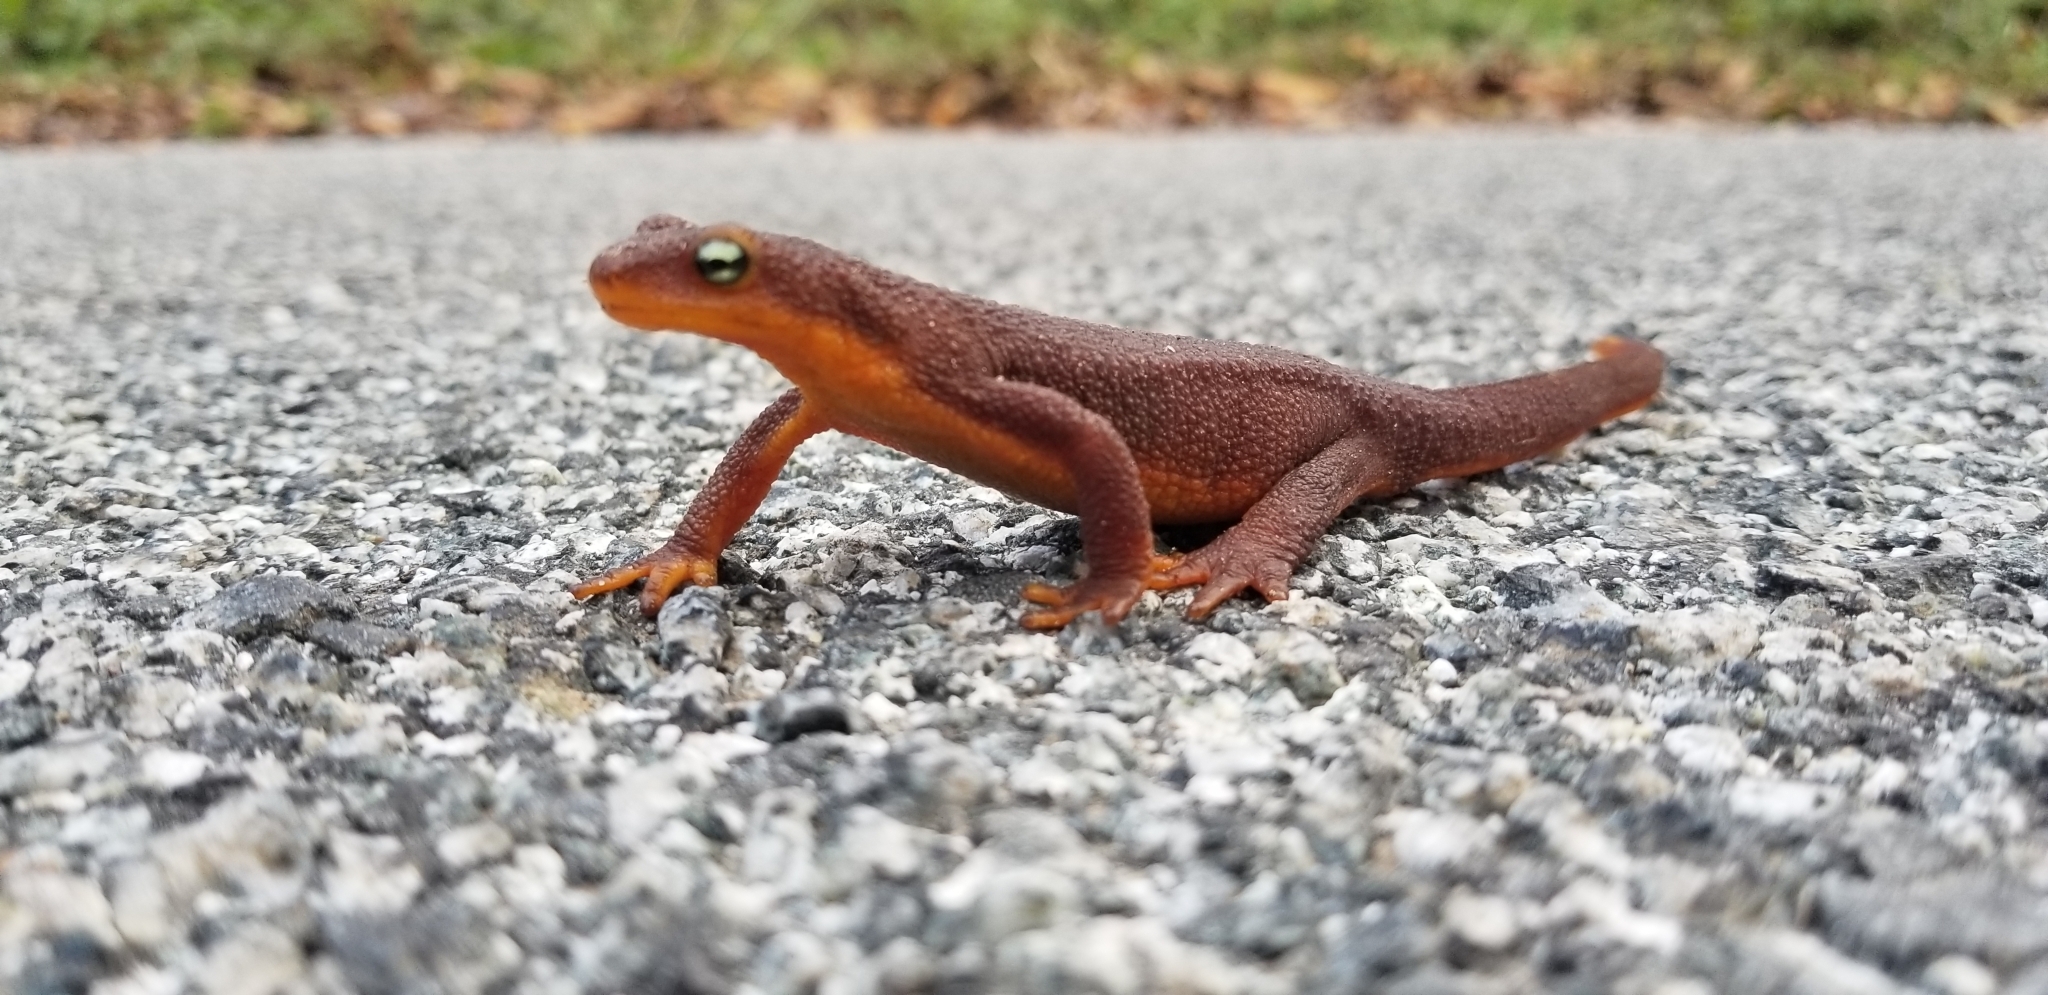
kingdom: Animalia
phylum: Chordata
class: Amphibia
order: Caudata
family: Salamandridae
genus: Taricha
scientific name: Taricha torosa
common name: California newt
